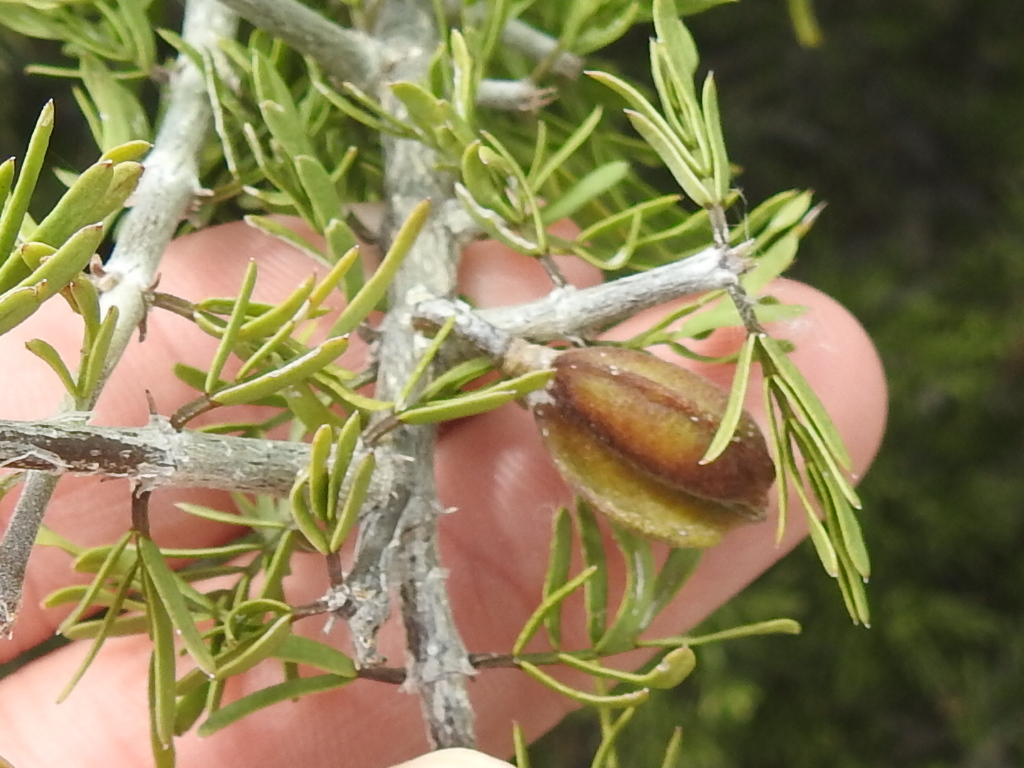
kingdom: Plantae
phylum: Tracheophyta
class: Magnoliopsida
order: Zygophyllales
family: Zygophyllaceae
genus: Porlieria
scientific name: Porlieria angustifolia
